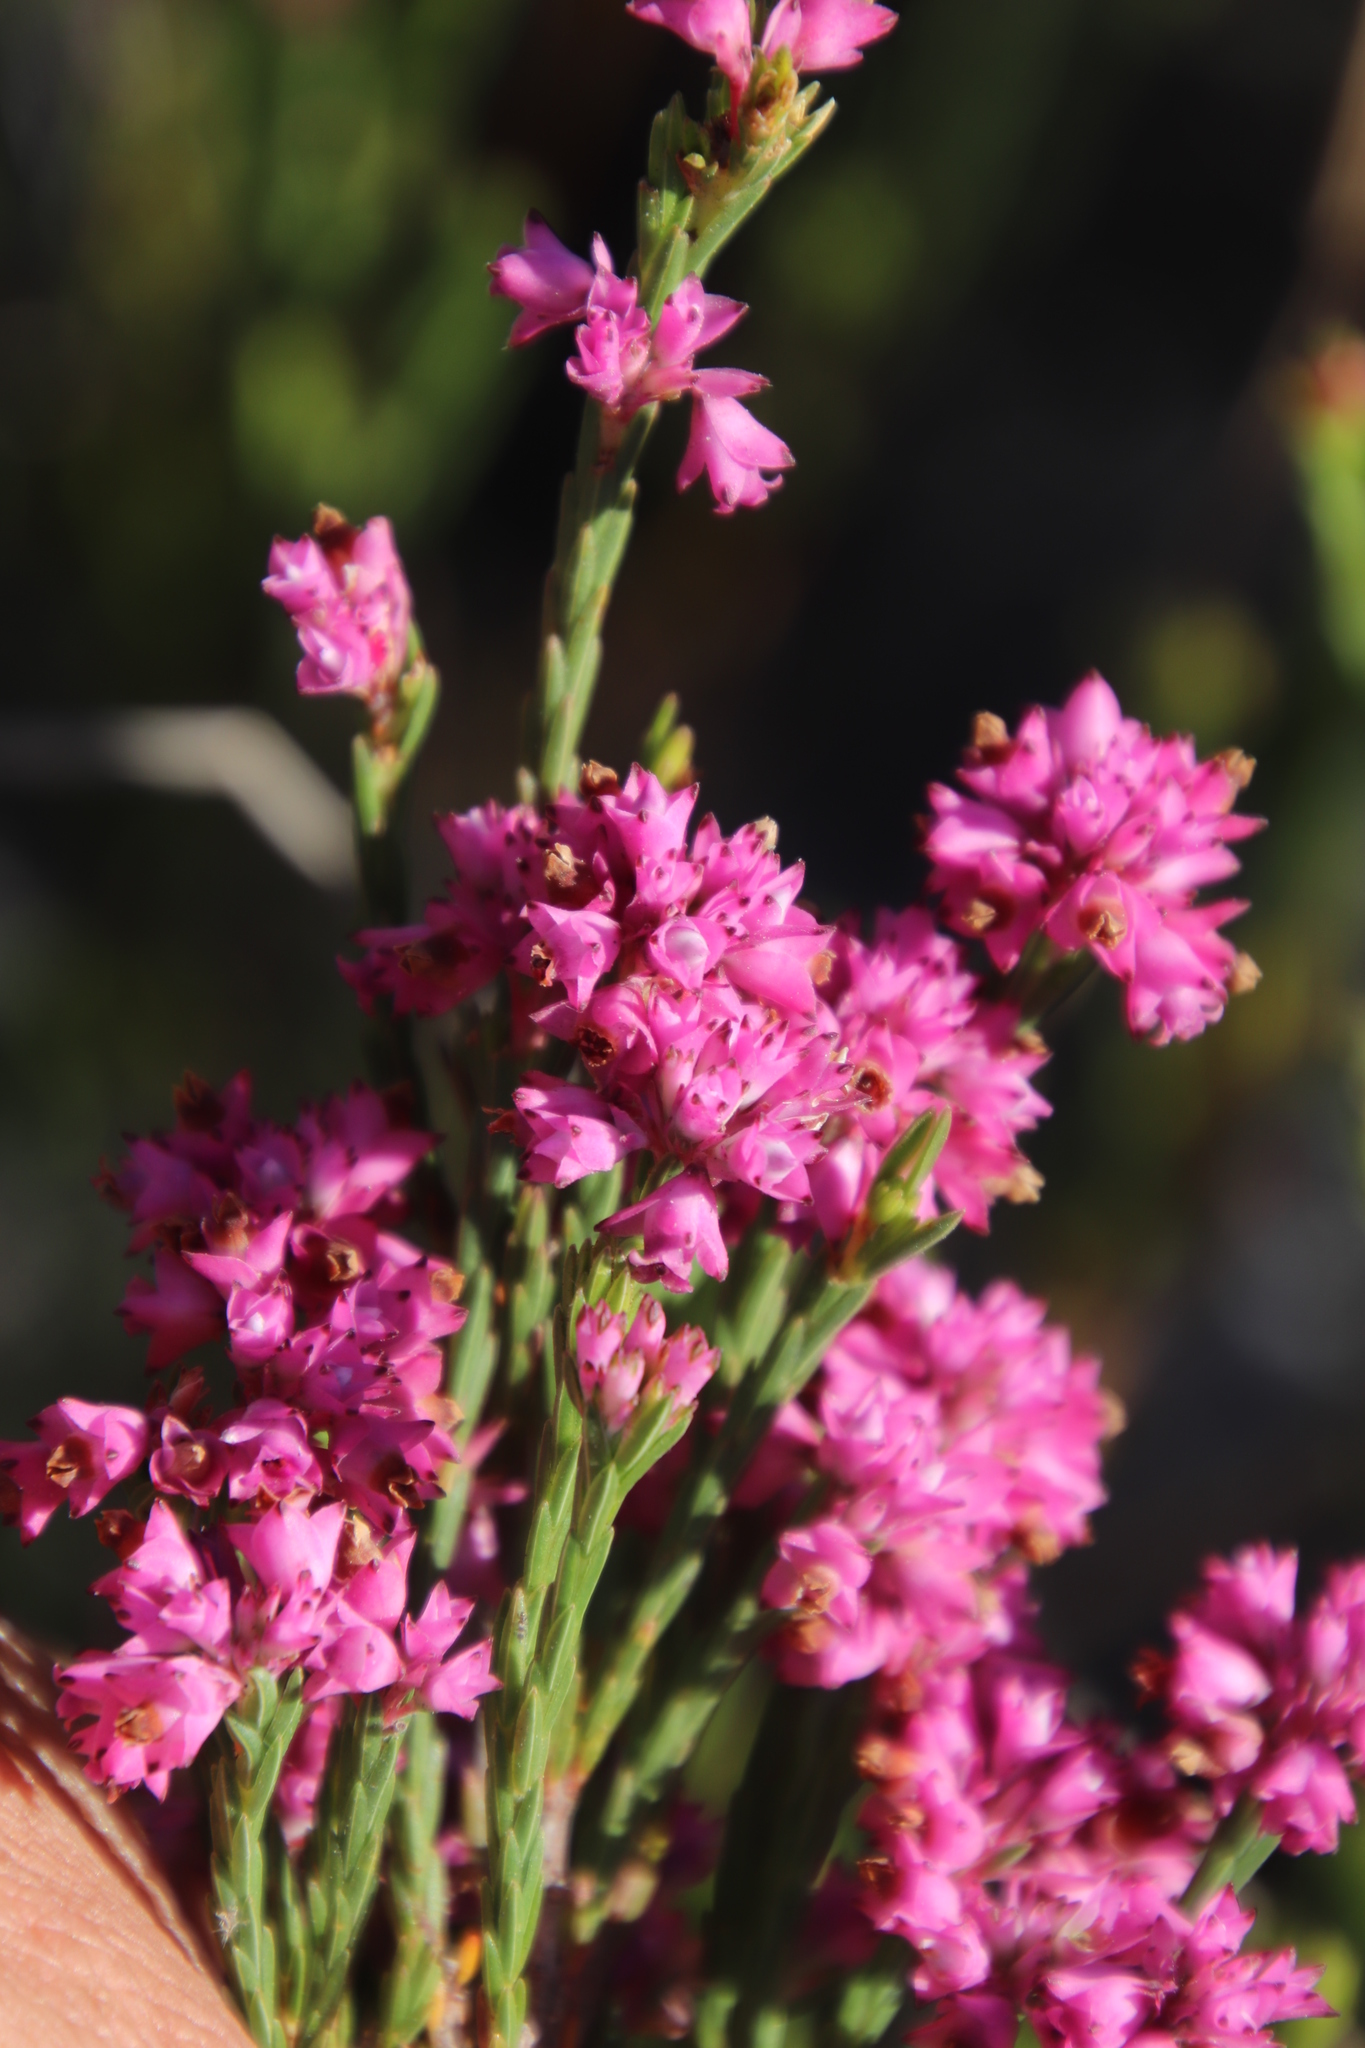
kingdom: Plantae
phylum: Tracheophyta
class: Magnoliopsida
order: Ericales
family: Ericaceae
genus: Erica
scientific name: Erica corifolia
